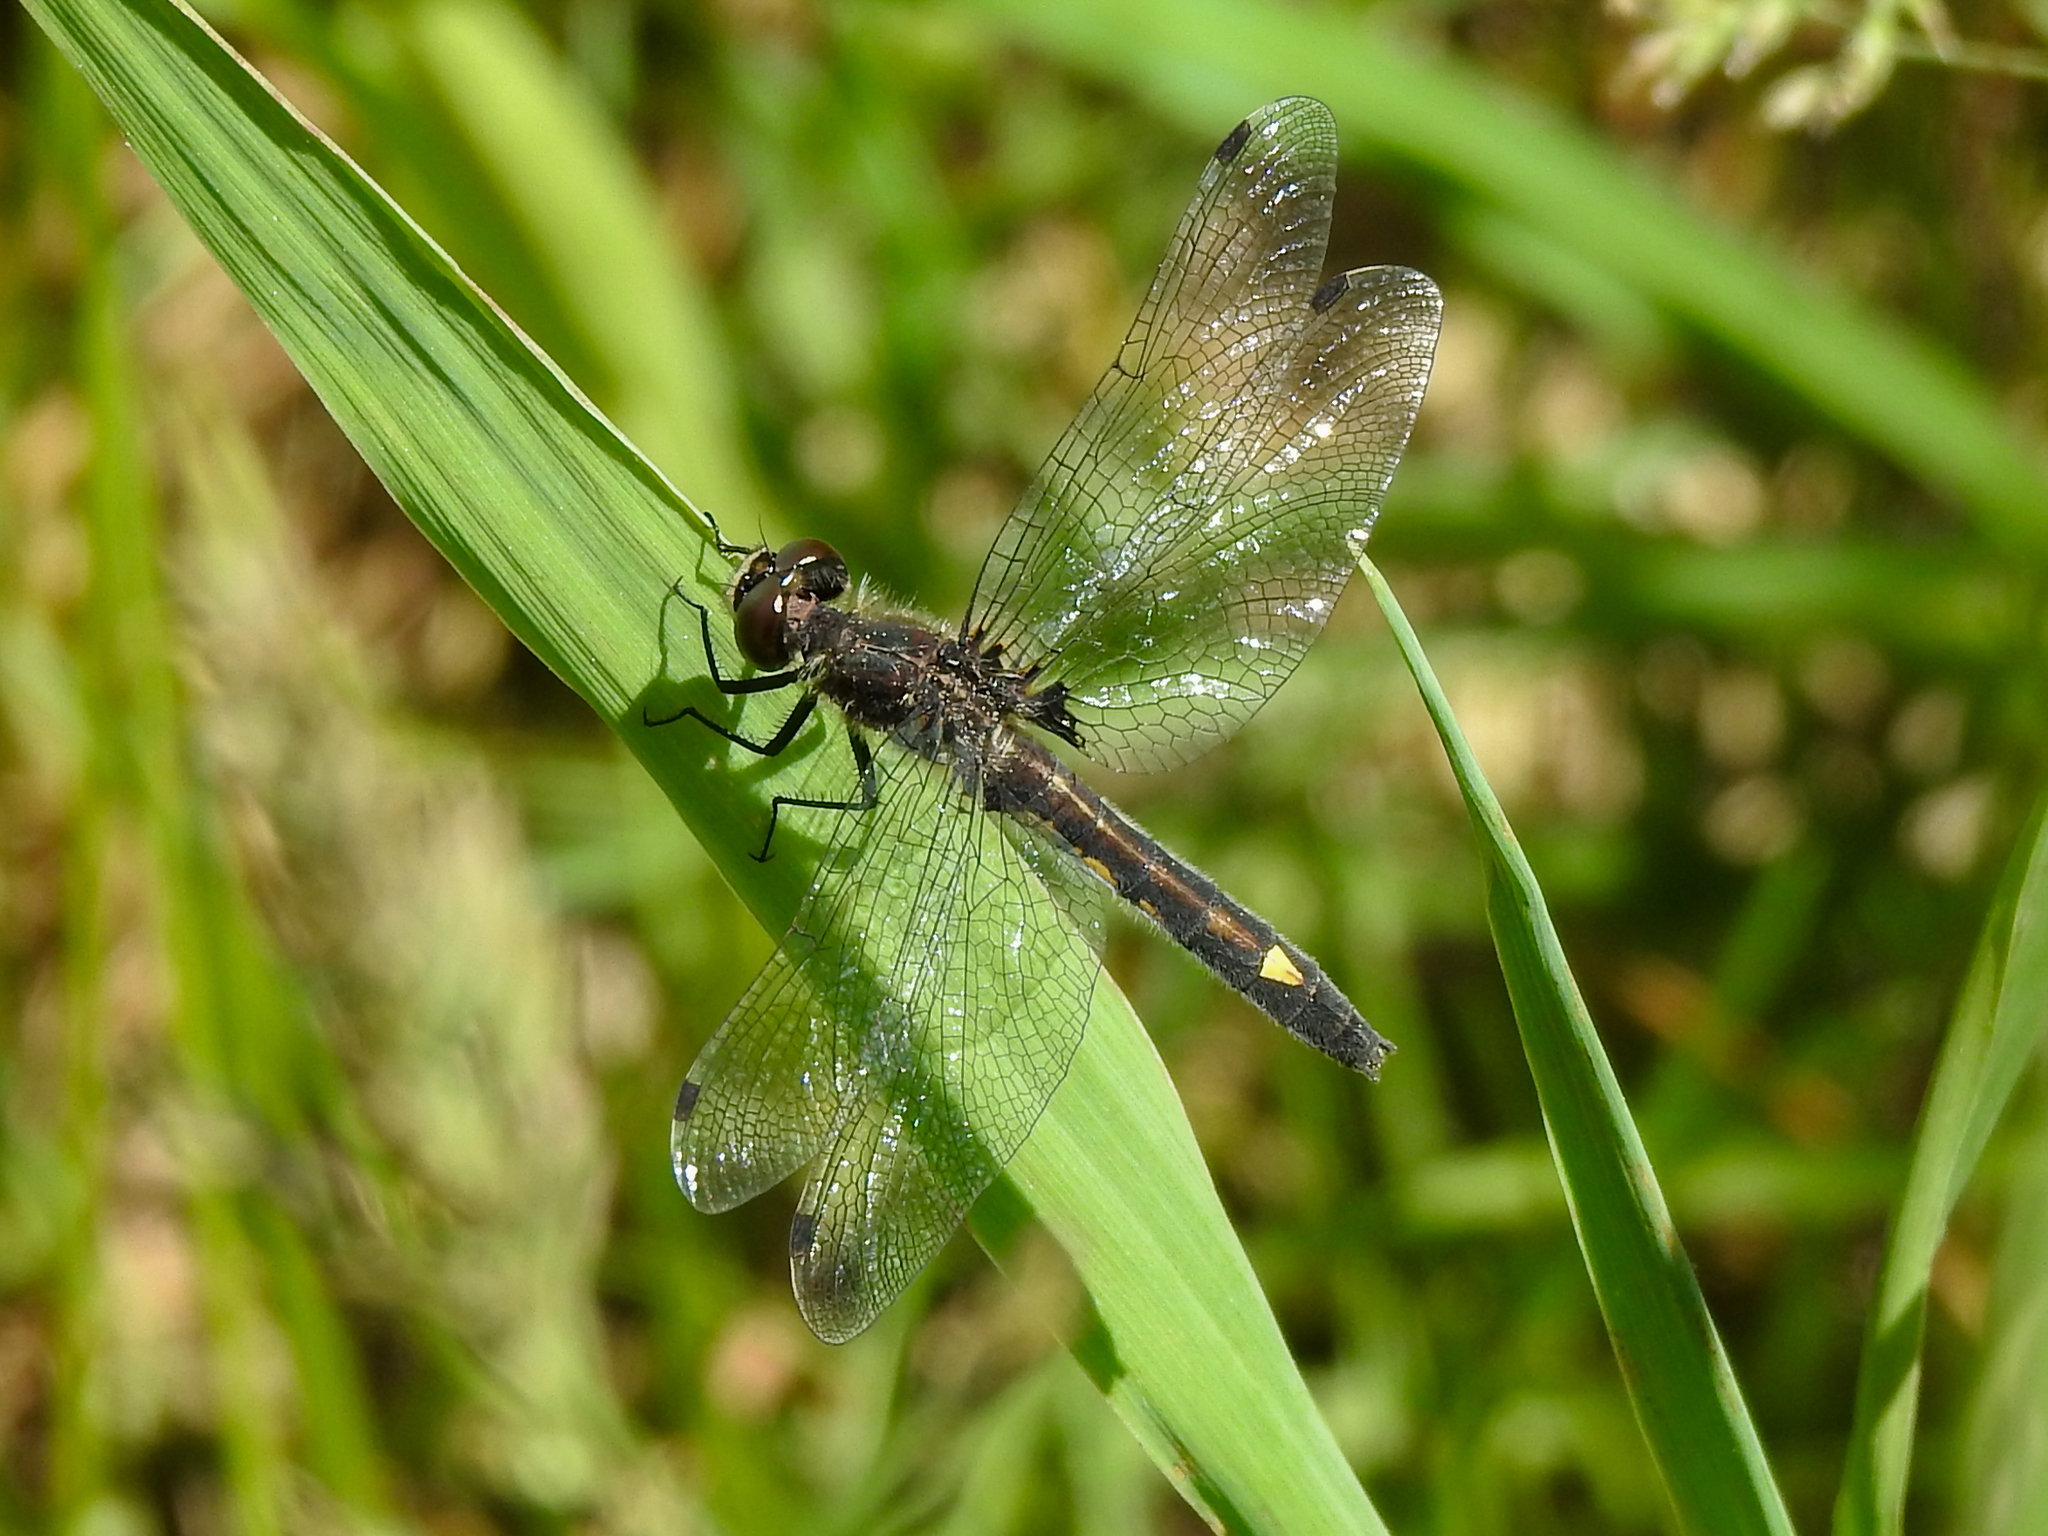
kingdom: Animalia
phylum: Arthropoda
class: Insecta
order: Odonata
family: Libellulidae
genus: Leucorrhinia
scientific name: Leucorrhinia intacta
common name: Dot-tailed whiteface
